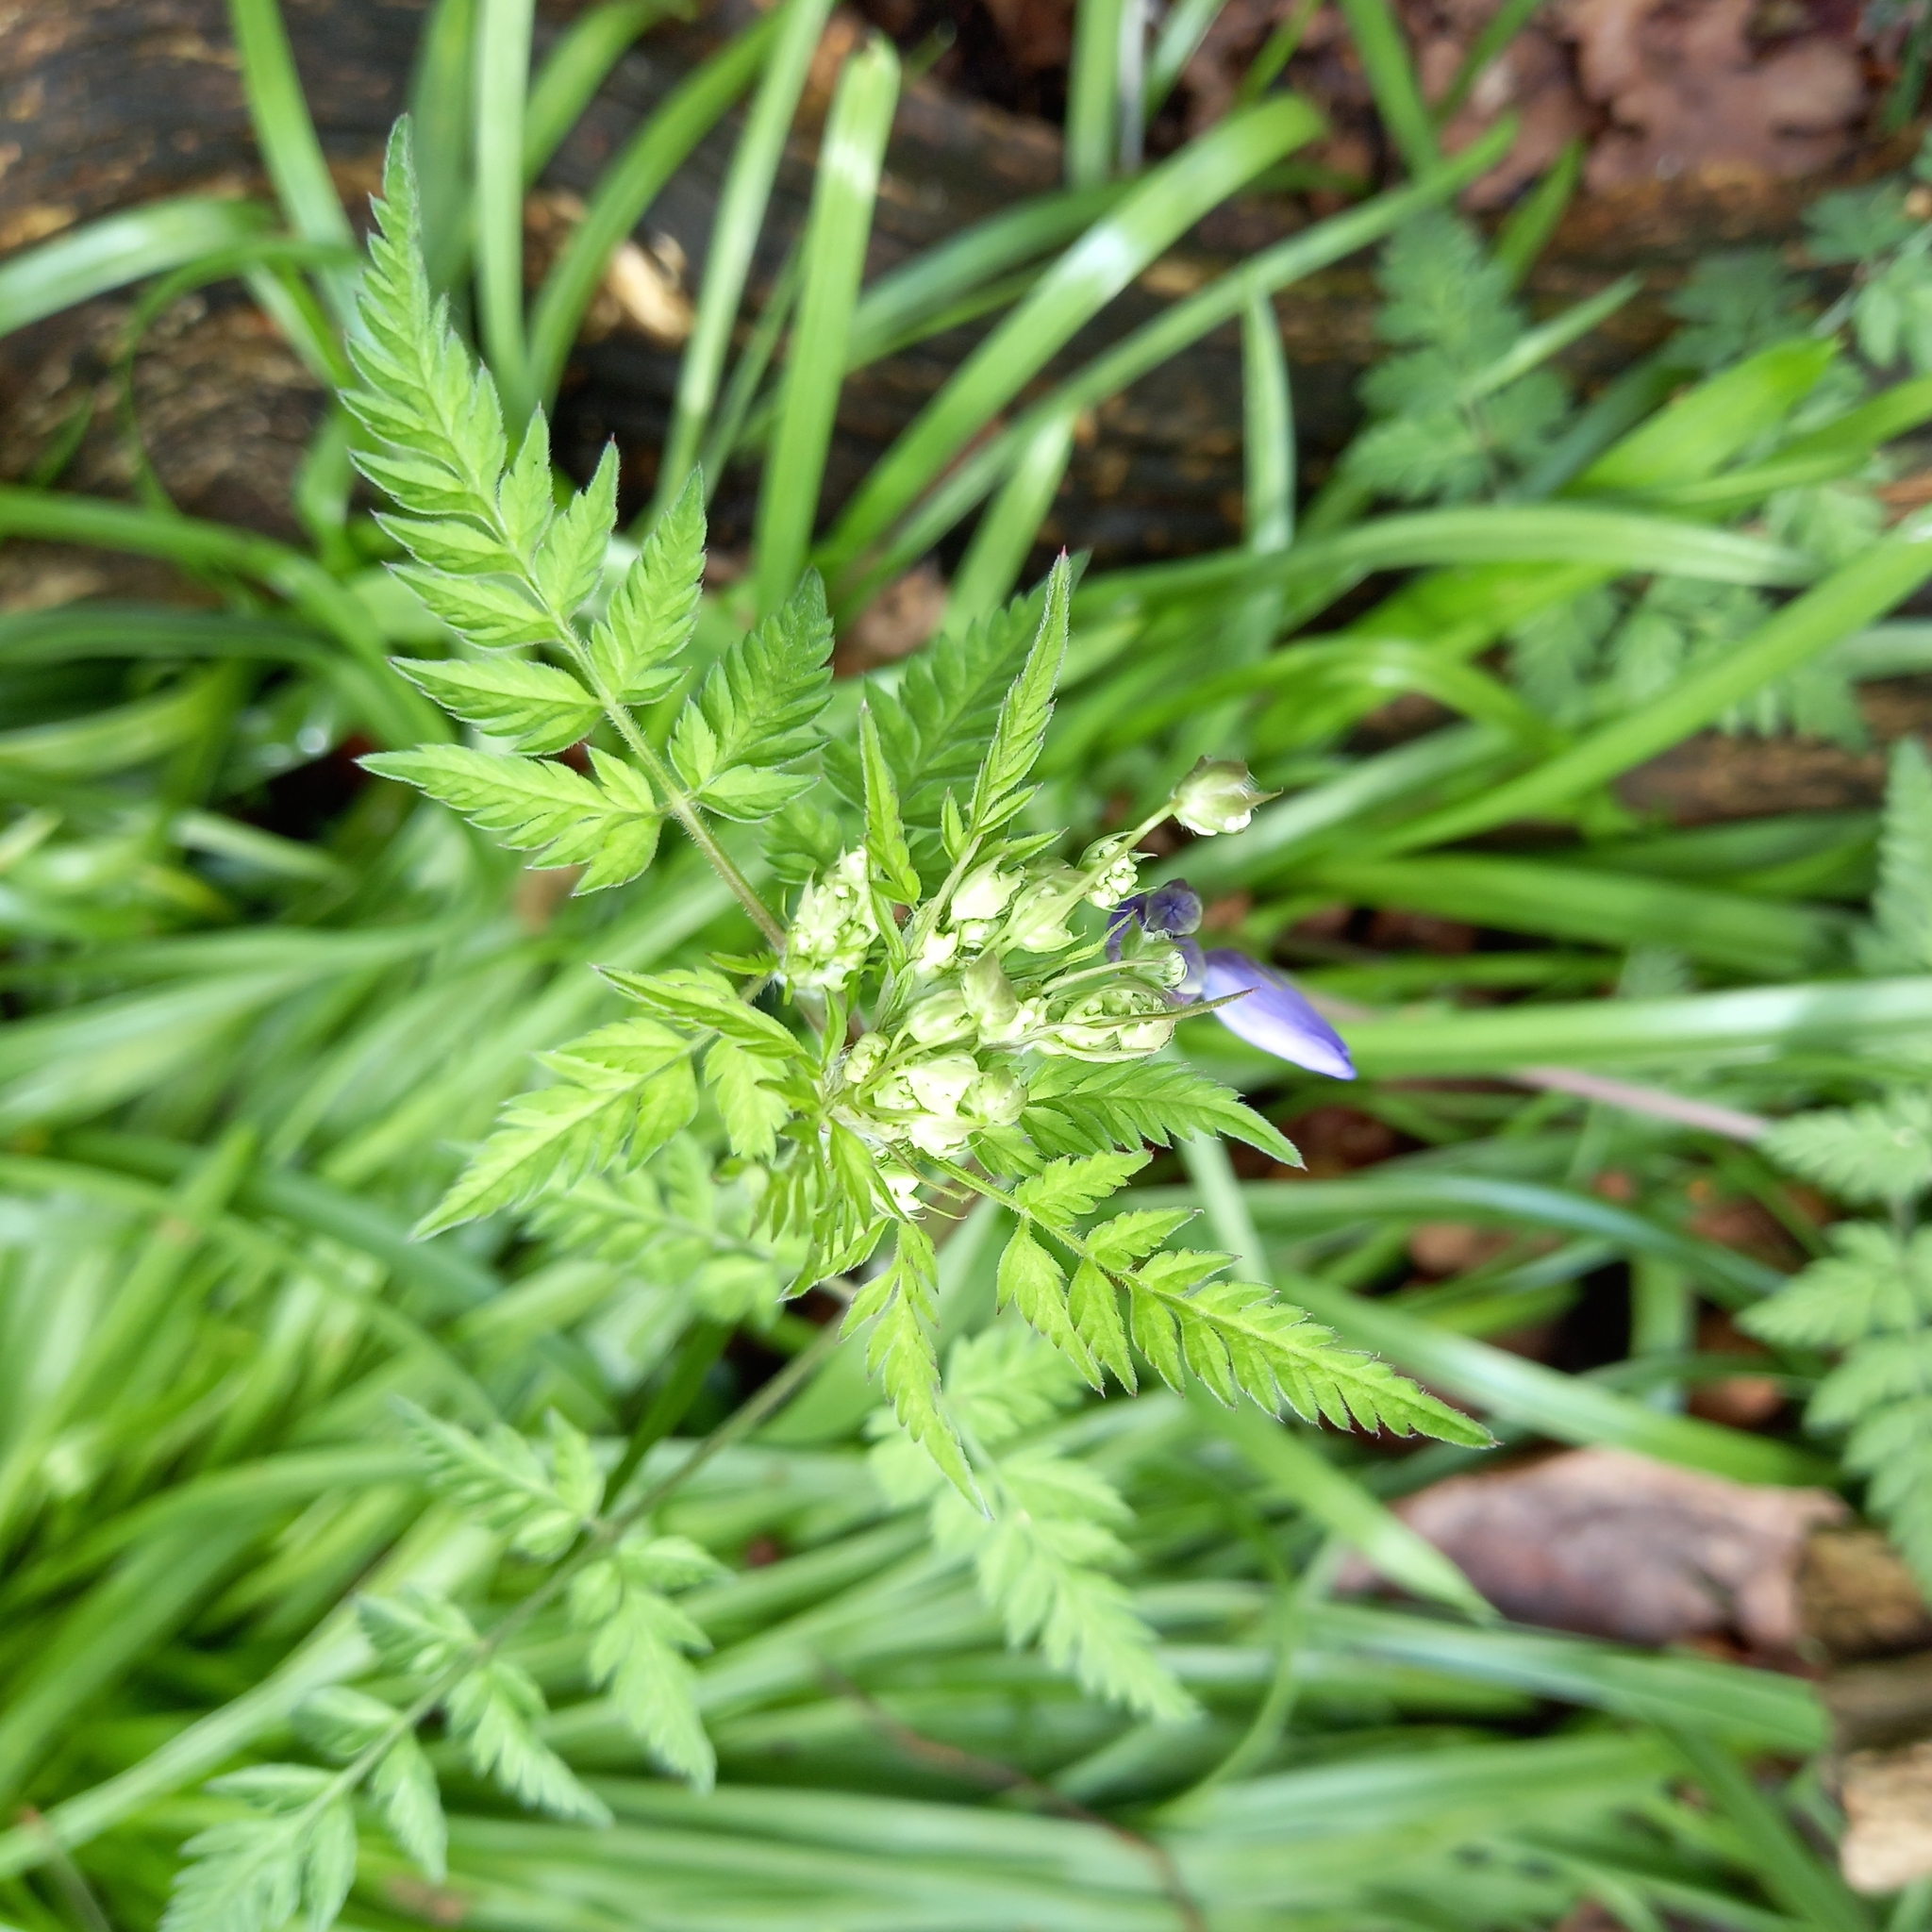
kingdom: Plantae
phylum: Tracheophyta
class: Magnoliopsida
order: Apiales
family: Apiaceae
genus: Anthriscus
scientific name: Anthriscus sylvestris
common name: Cow parsley
